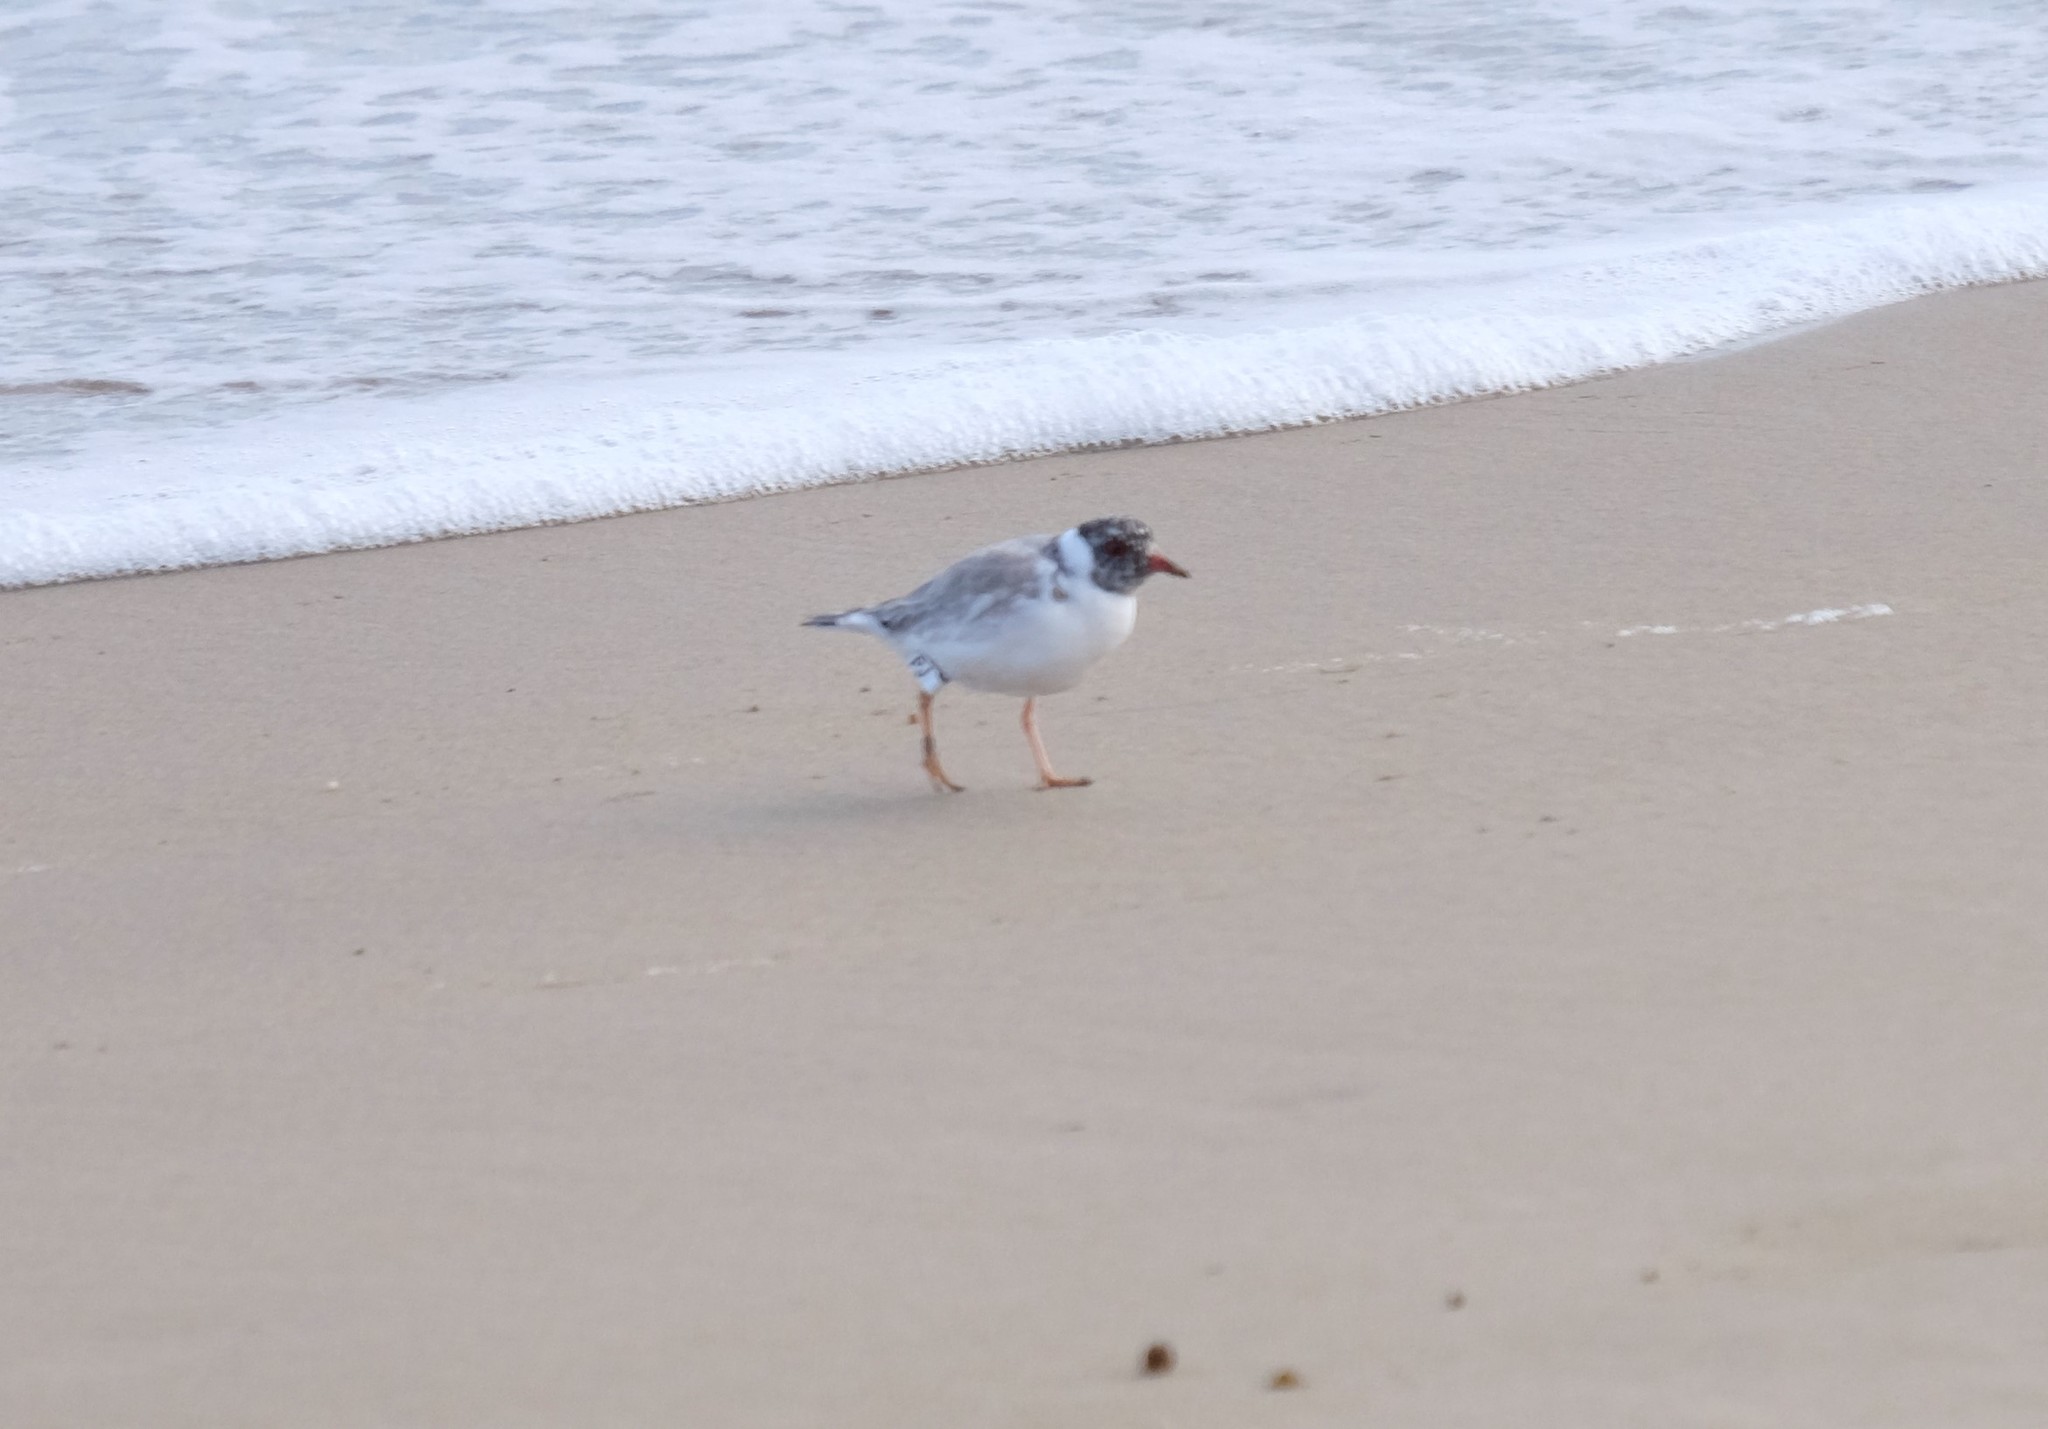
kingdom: Animalia
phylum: Chordata
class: Aves
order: Charadriiformes
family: Charadriidae
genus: Thinornis
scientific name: Thinornis cucullatus
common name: Hooded dotterel
